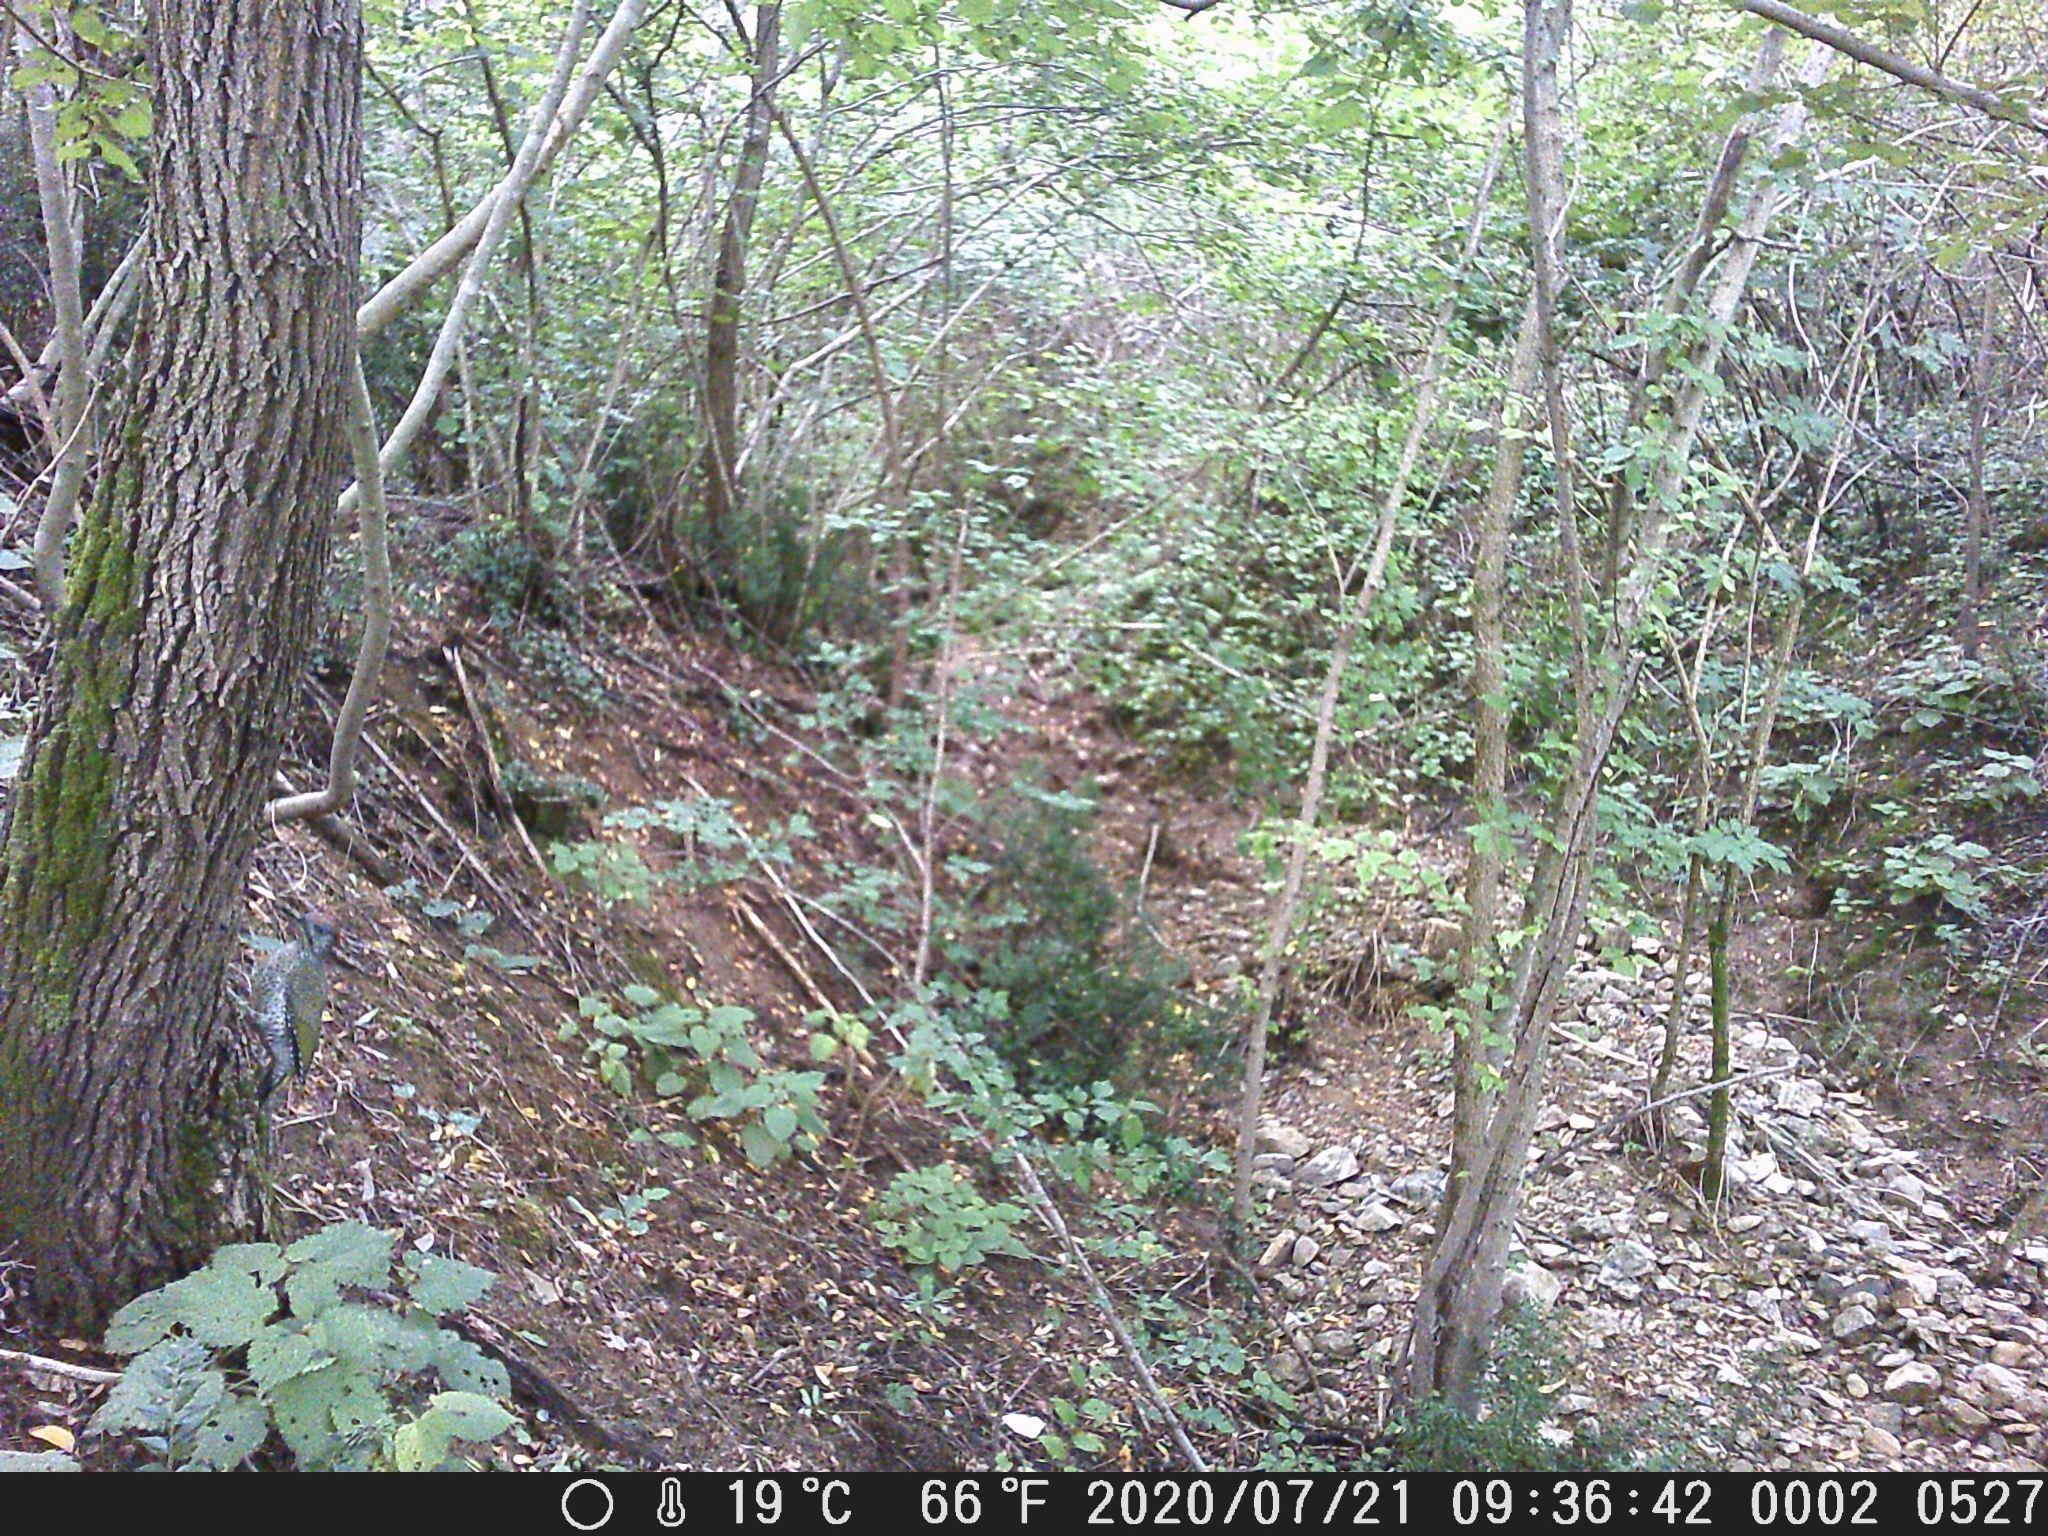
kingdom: Animalia
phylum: Chordata
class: Aves
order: Piciformes
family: Picidae
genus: Picus
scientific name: Picus viridis
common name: European green woodpecker
